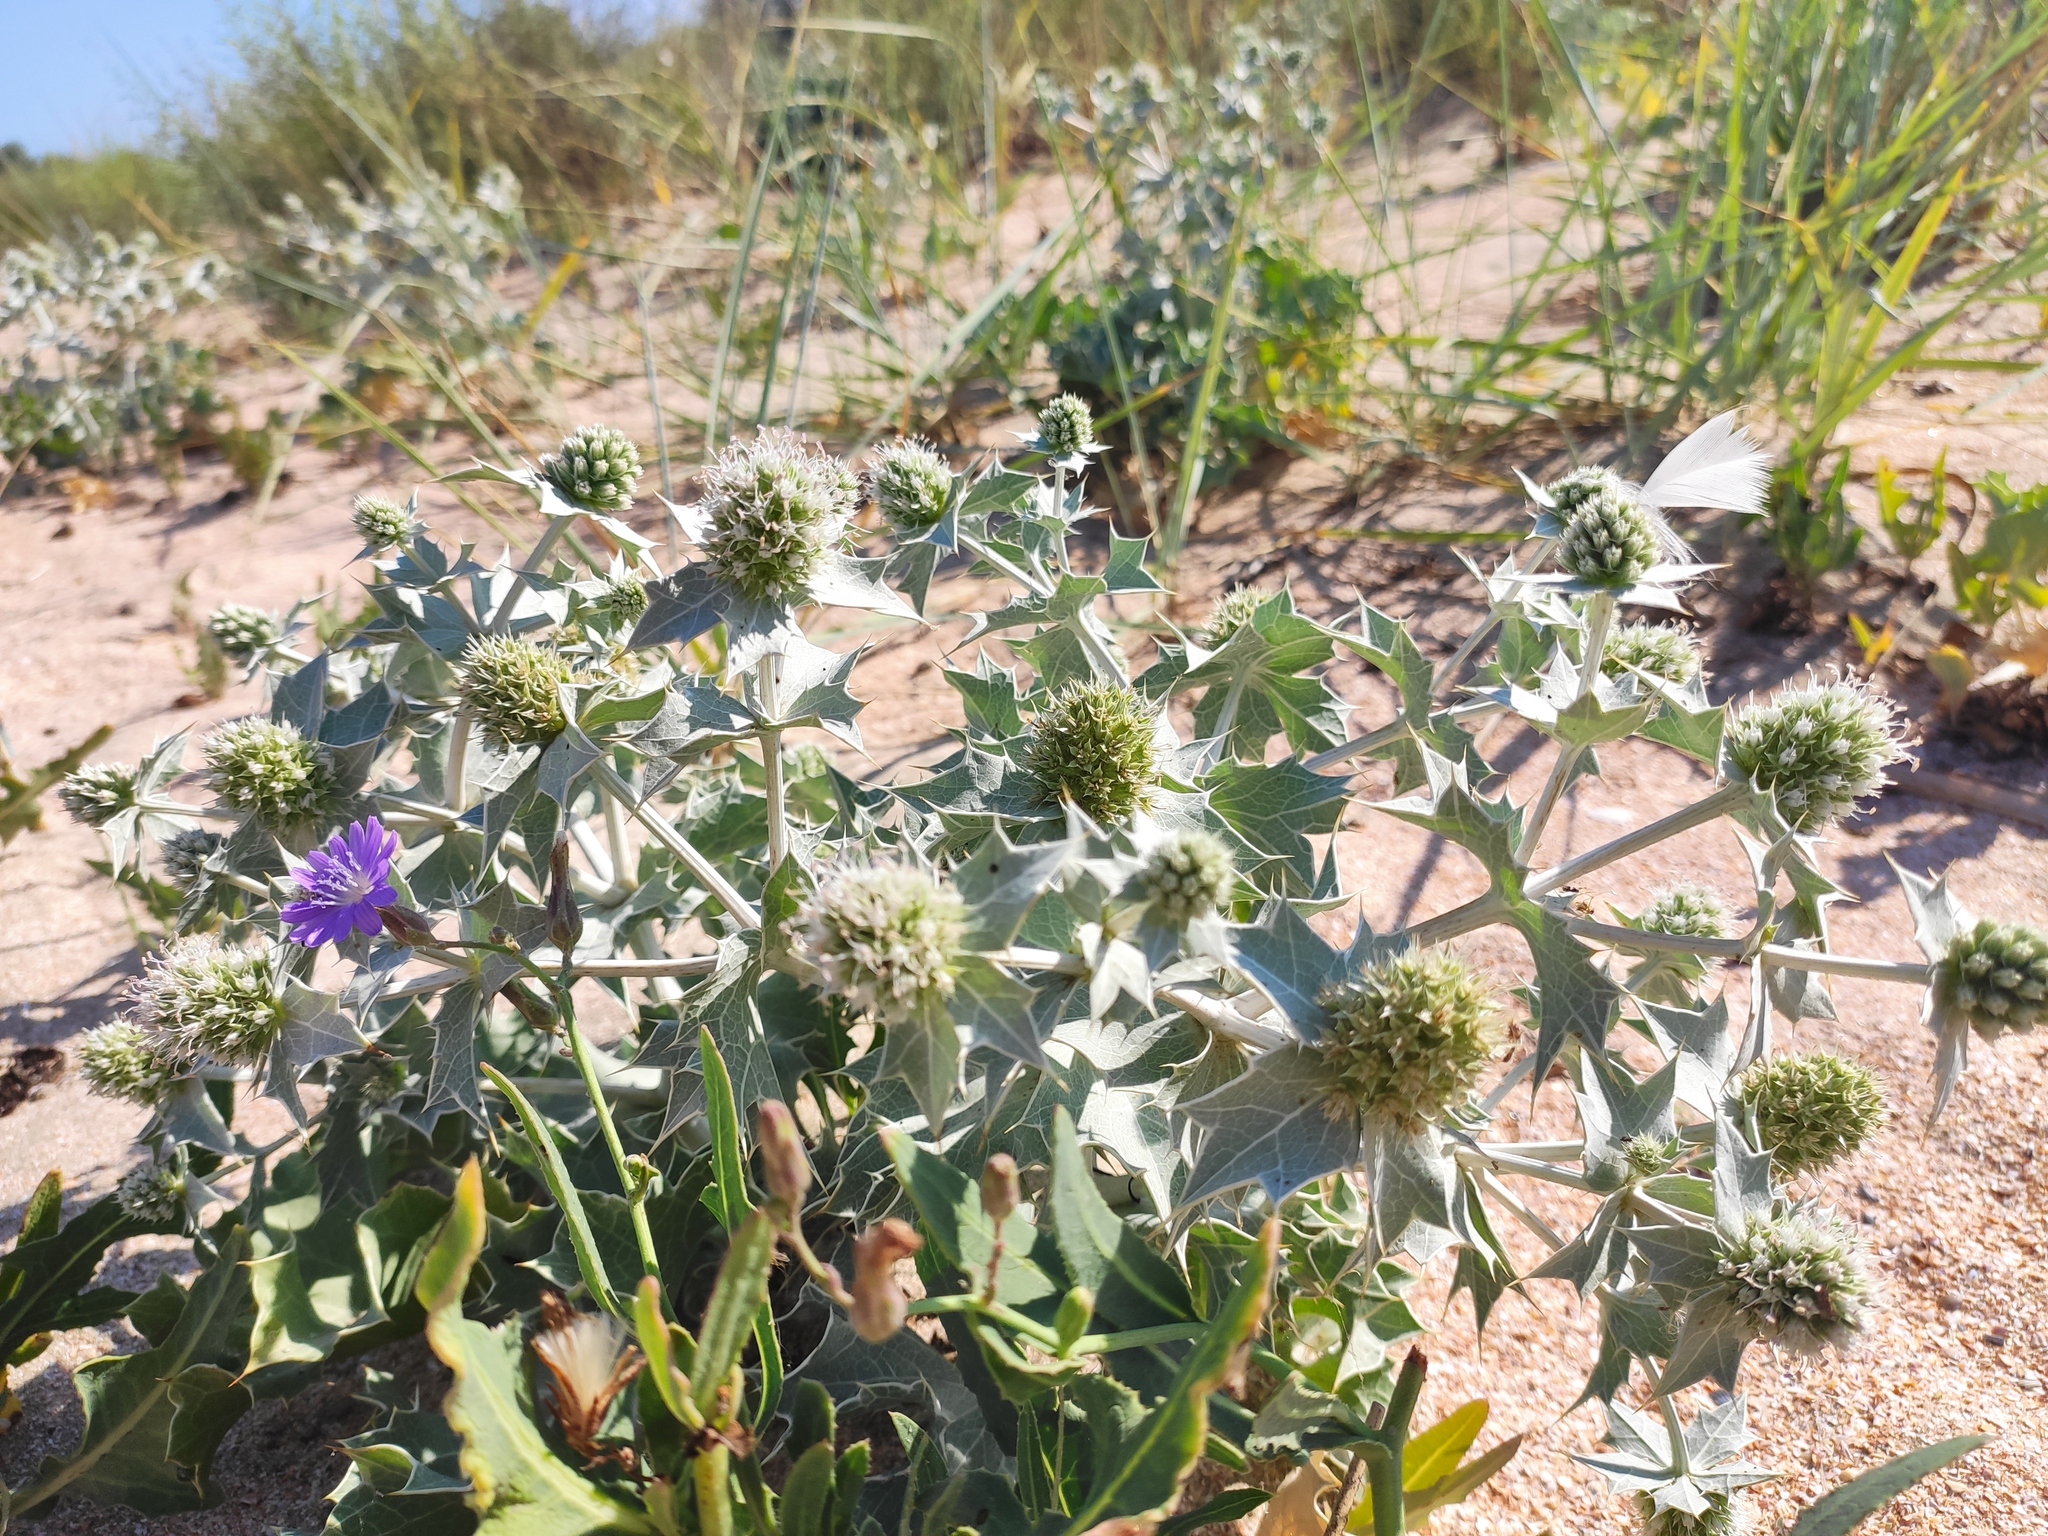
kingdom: Plantae
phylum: Tracheophyta
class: Magnoliopsida
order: Apiales
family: Apiaceae
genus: Eryngium
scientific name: Eryngium maritimum
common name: Sea-holly
